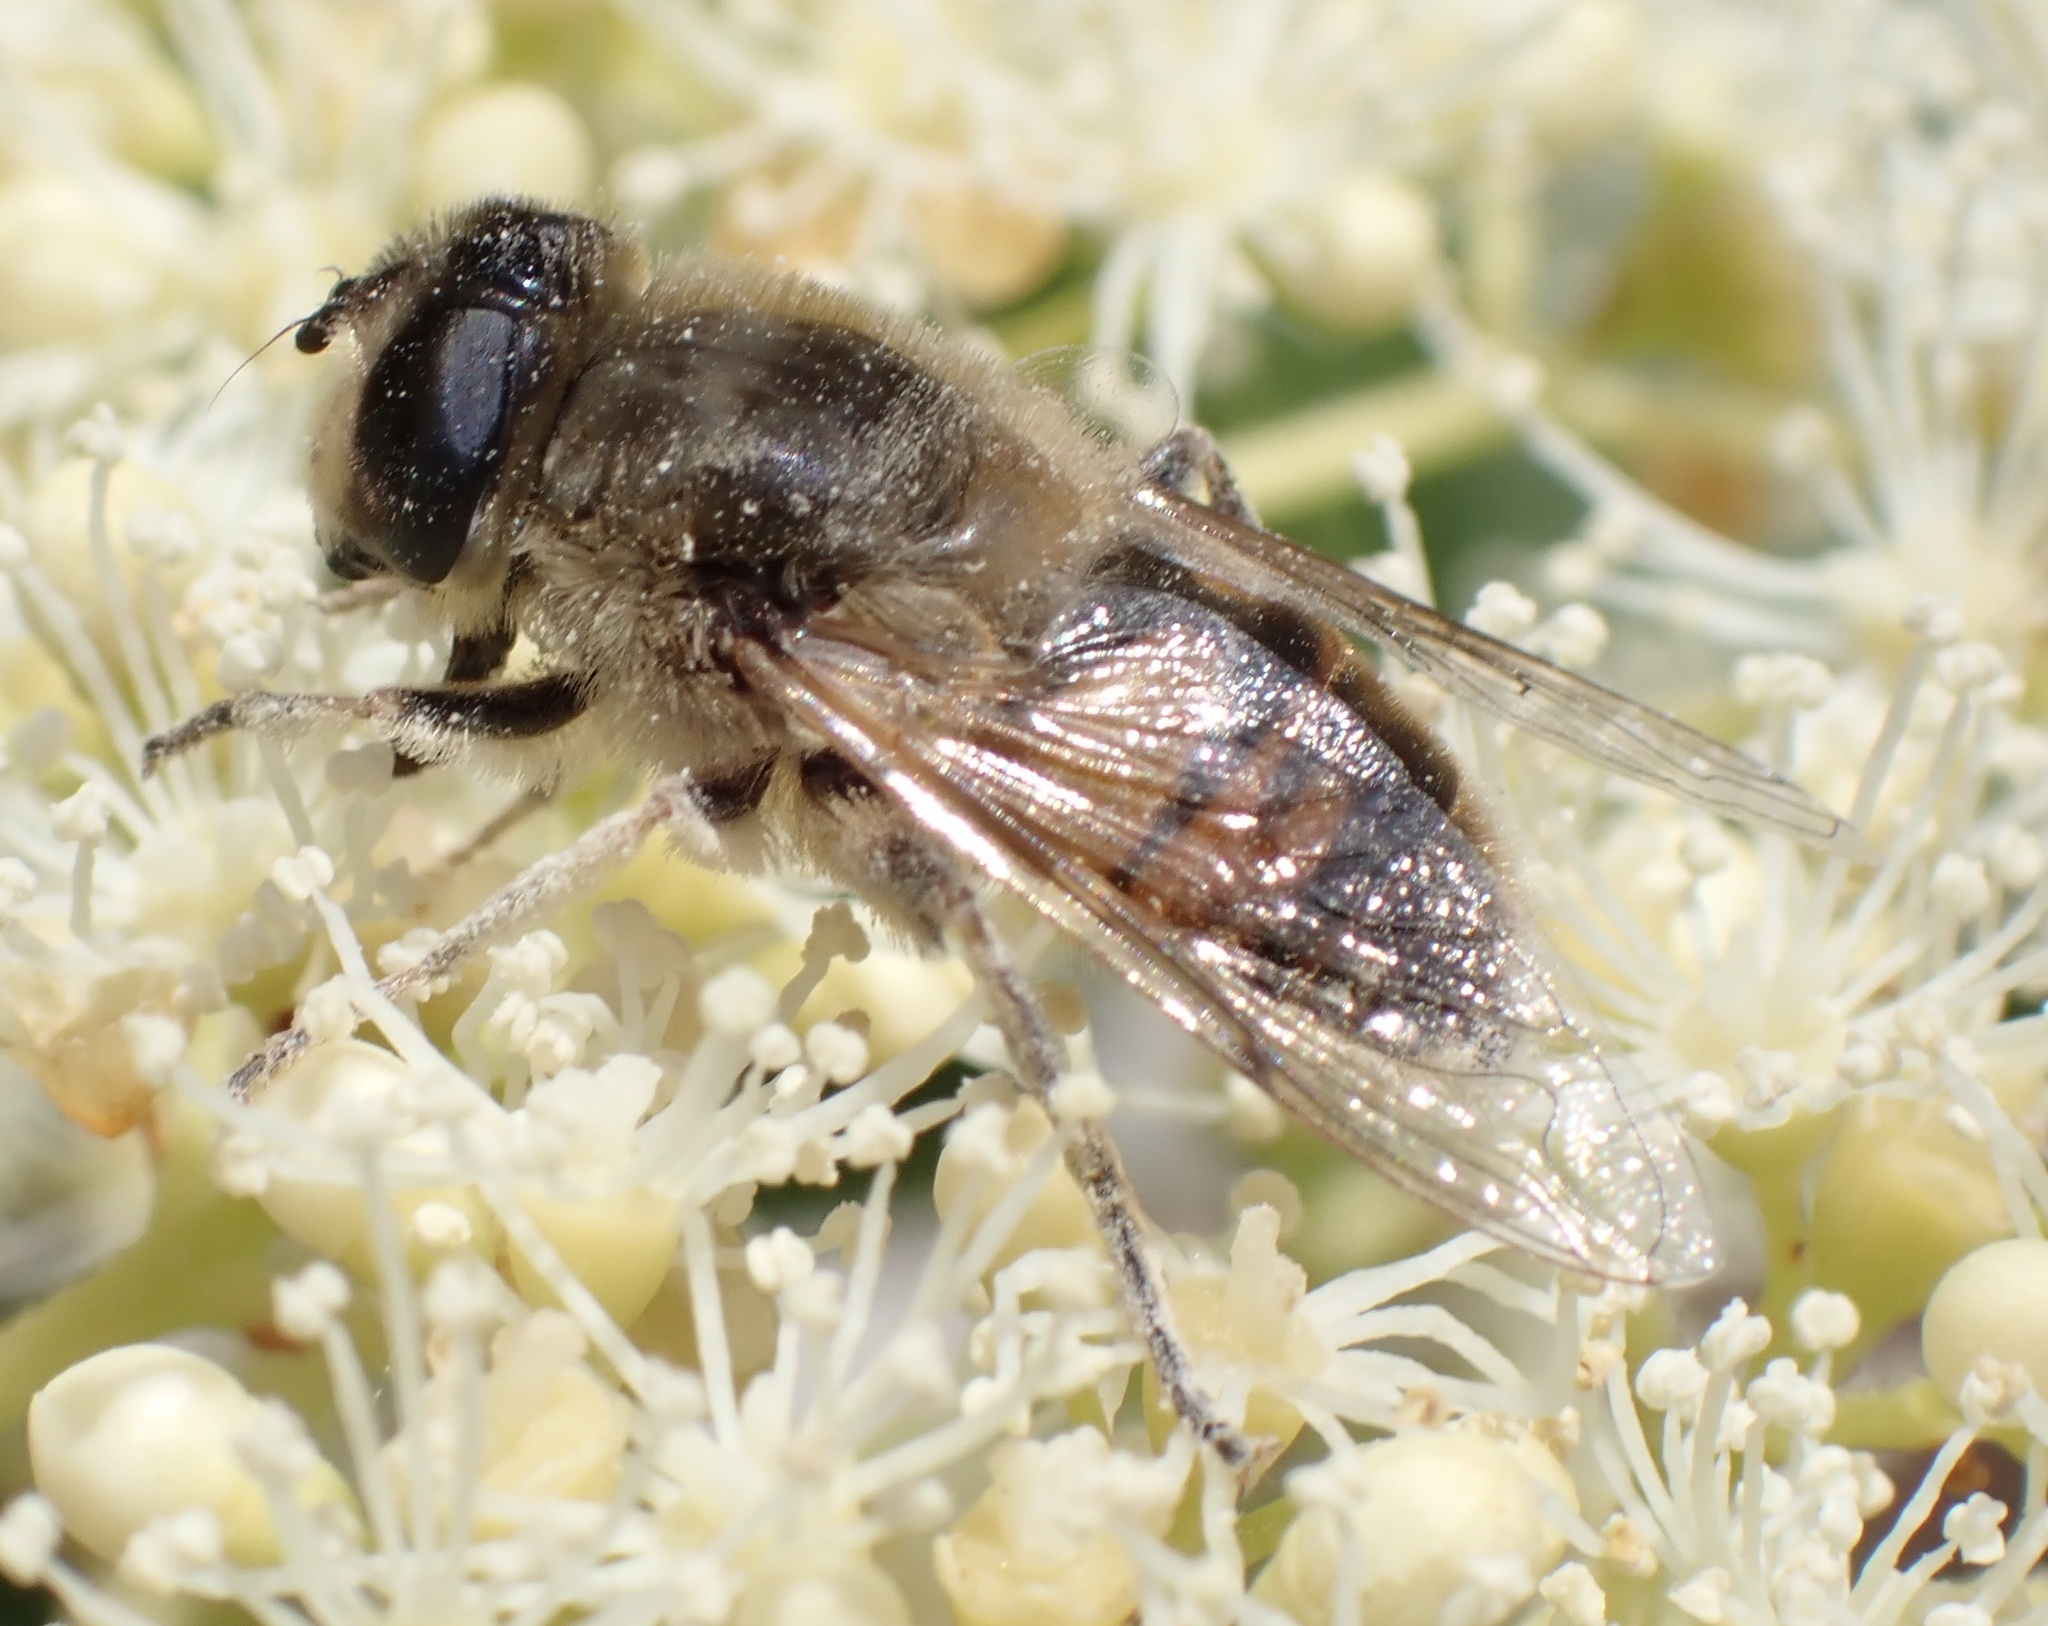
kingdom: Animalia
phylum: Arthropoda
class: Insecta
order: Diptera
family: Syrphidae
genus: Eristalis
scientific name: Eristalis tenax
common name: Drone fly
